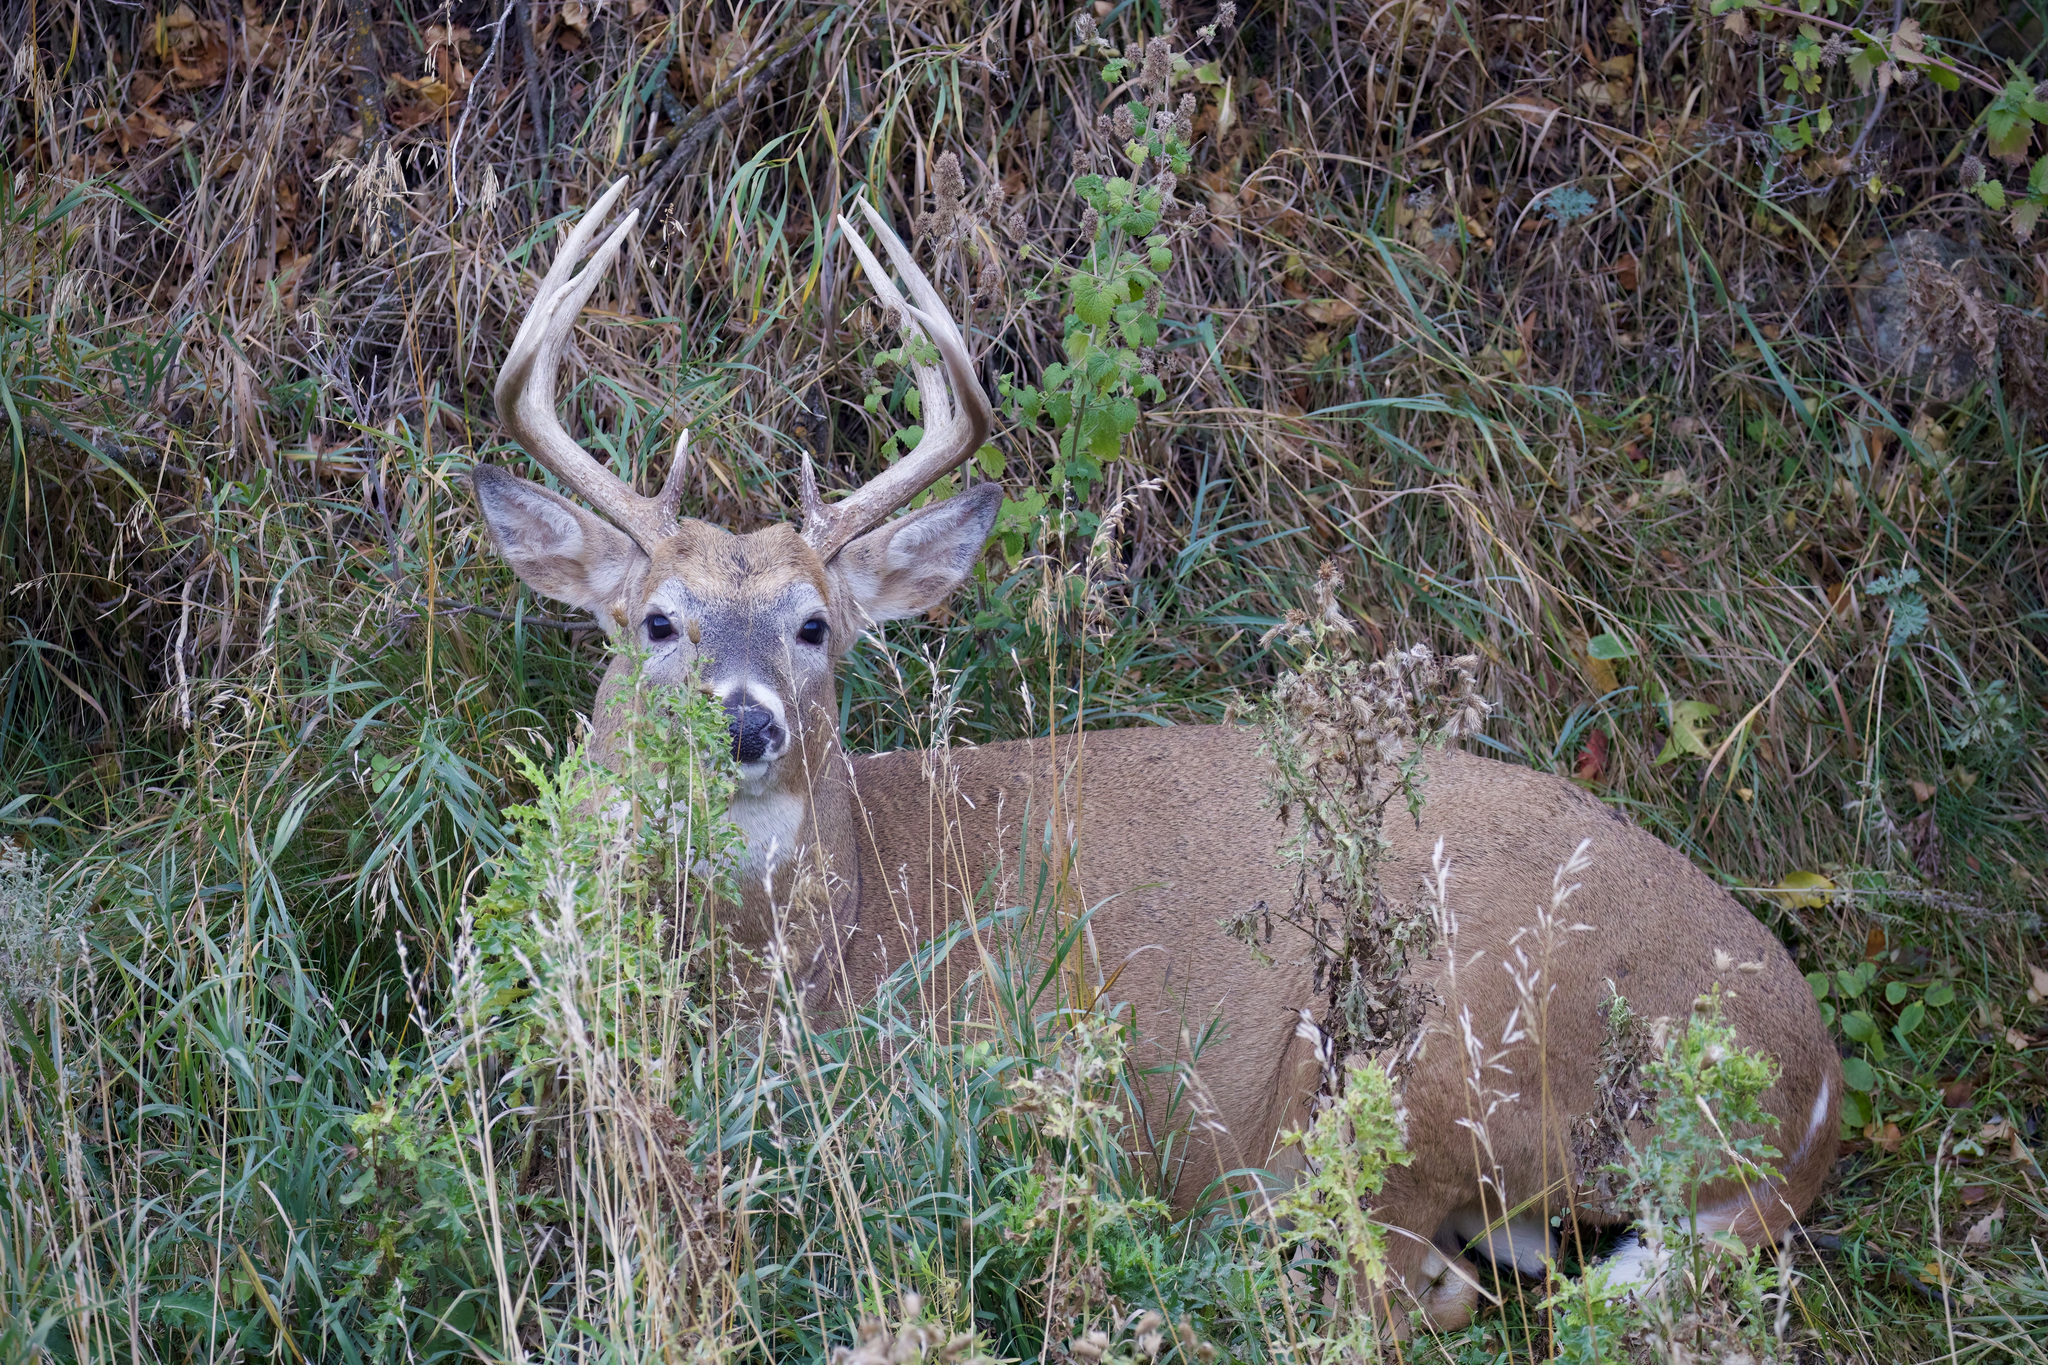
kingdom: Animalia
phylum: Chordata
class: Mammalia
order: Artiodactyla
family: Cervidae
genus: Odocoileus
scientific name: Odocoileus virginianus
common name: White-tailed deer
